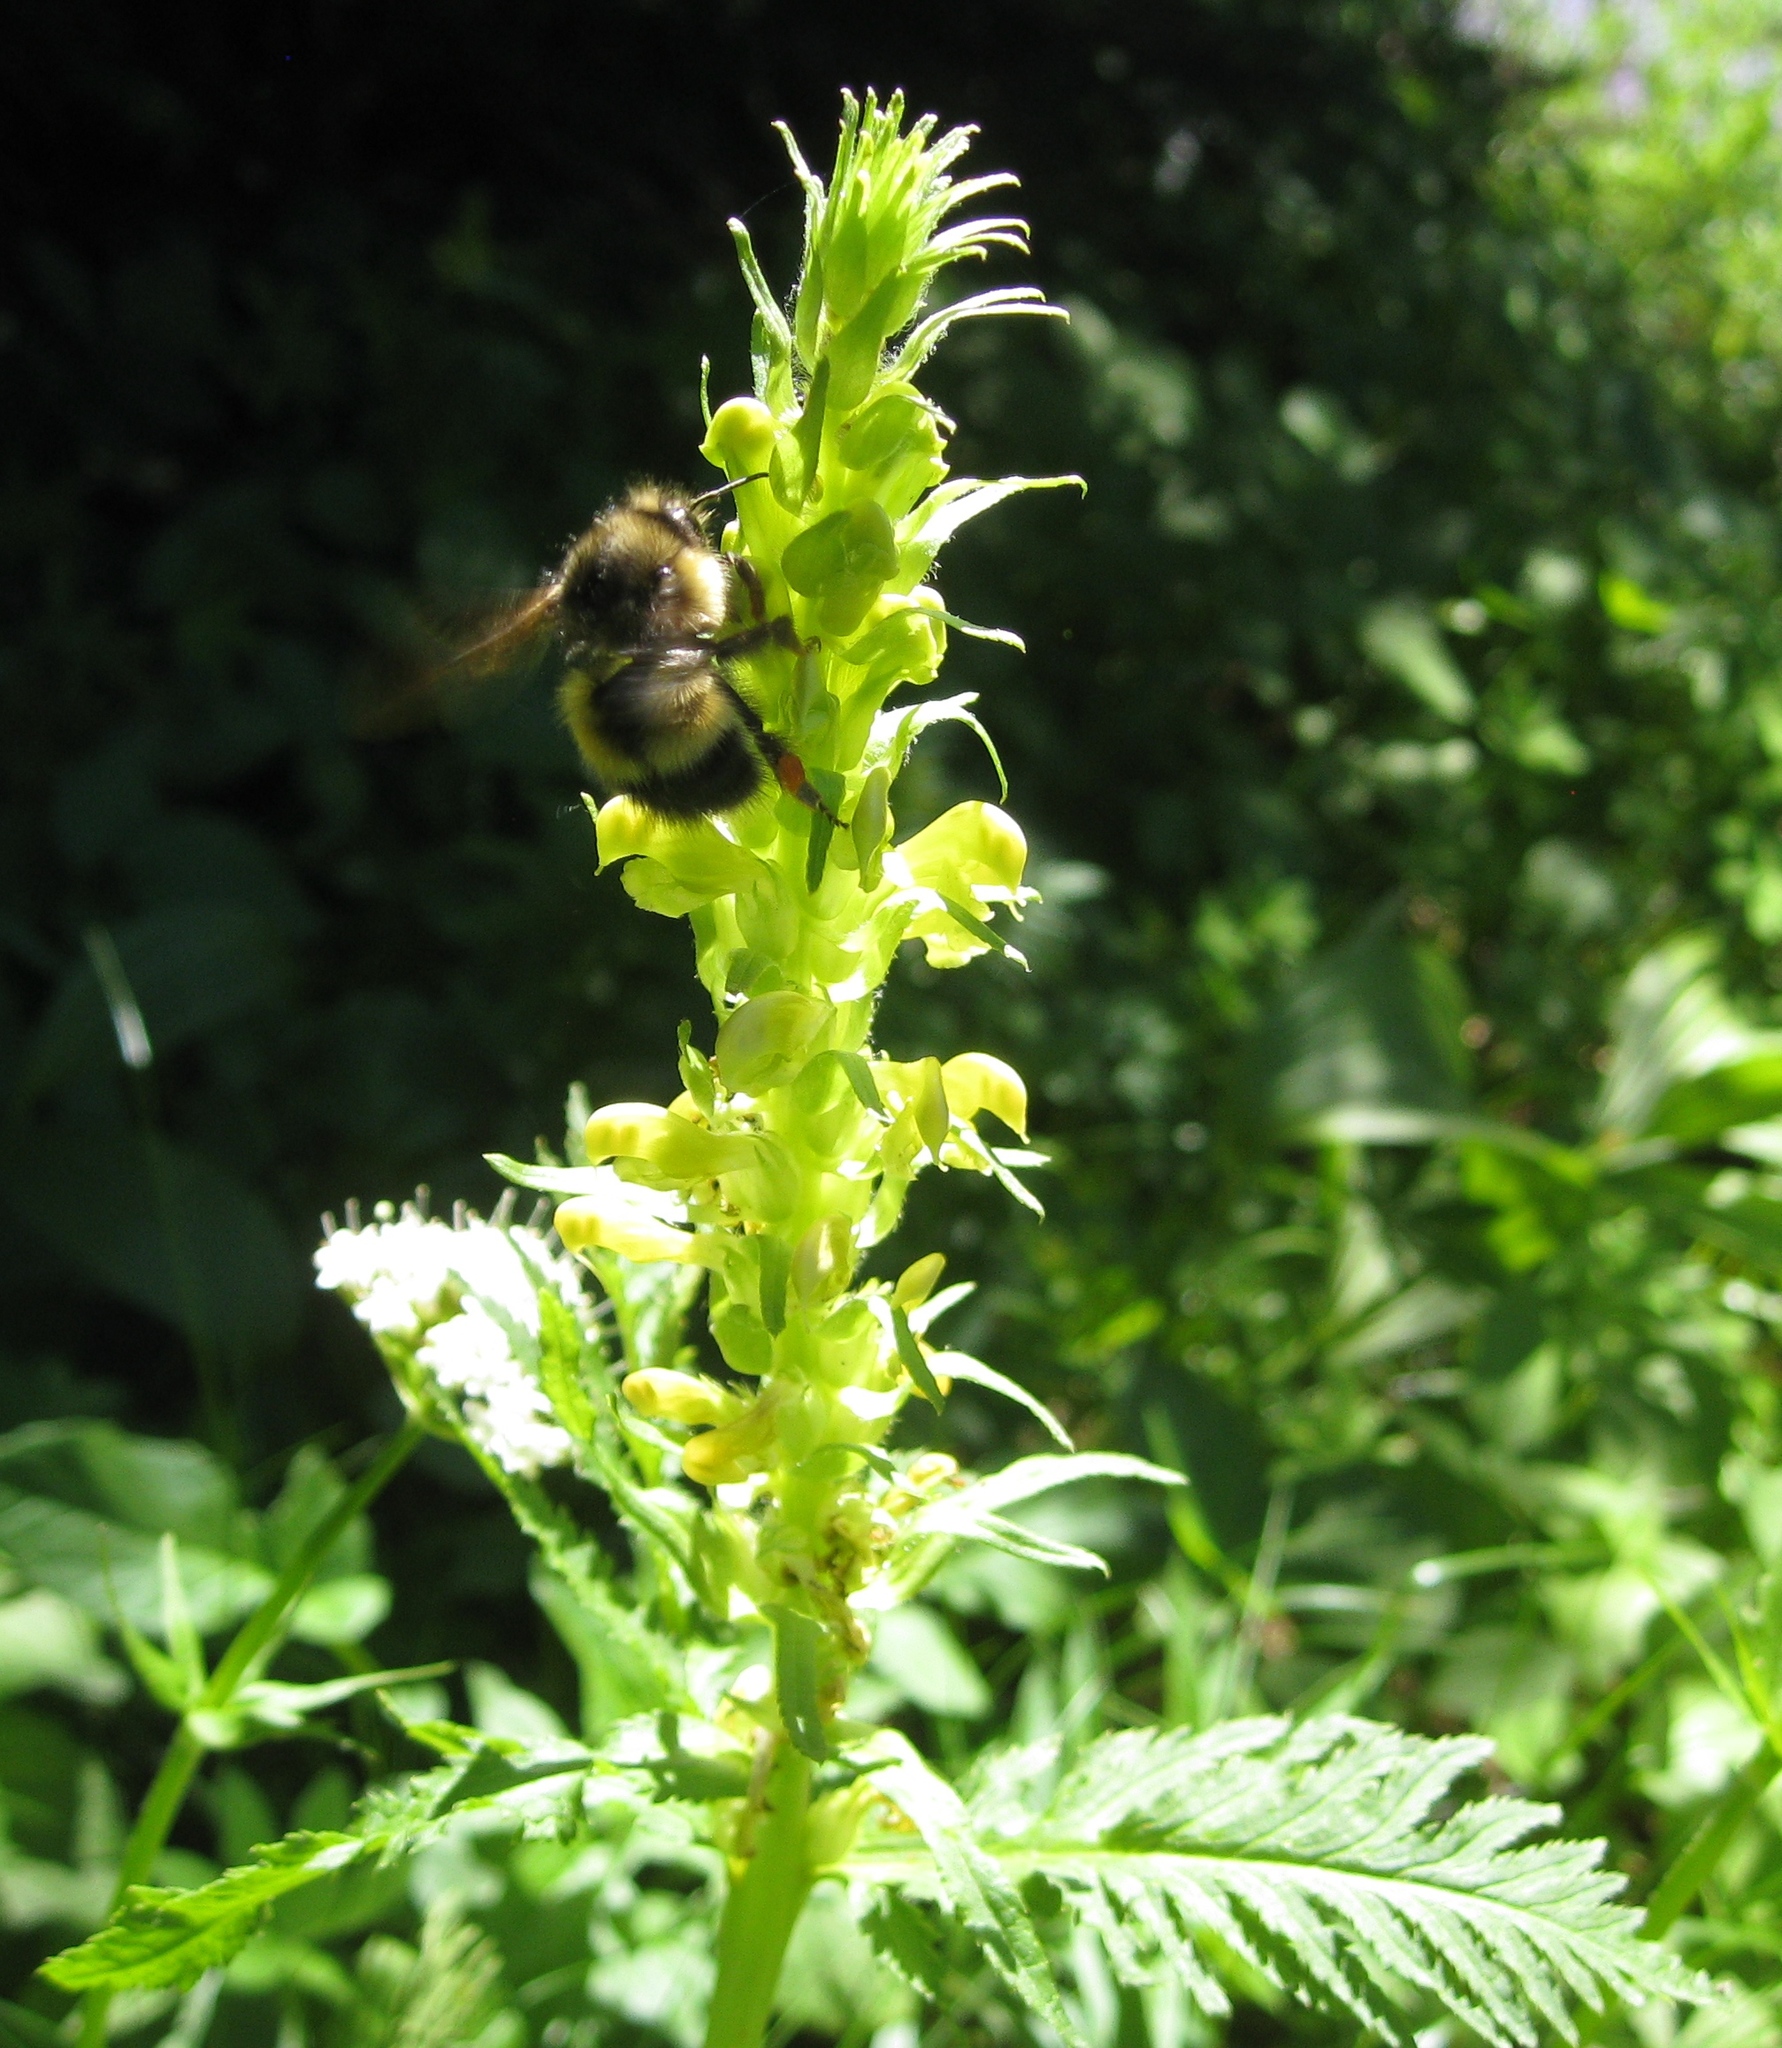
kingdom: Animalia
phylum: Arthropoda
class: Insecta
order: Hymenoptera
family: Apidae
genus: Bombus
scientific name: Bombus flavifrons
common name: Yellow head bumble bee
